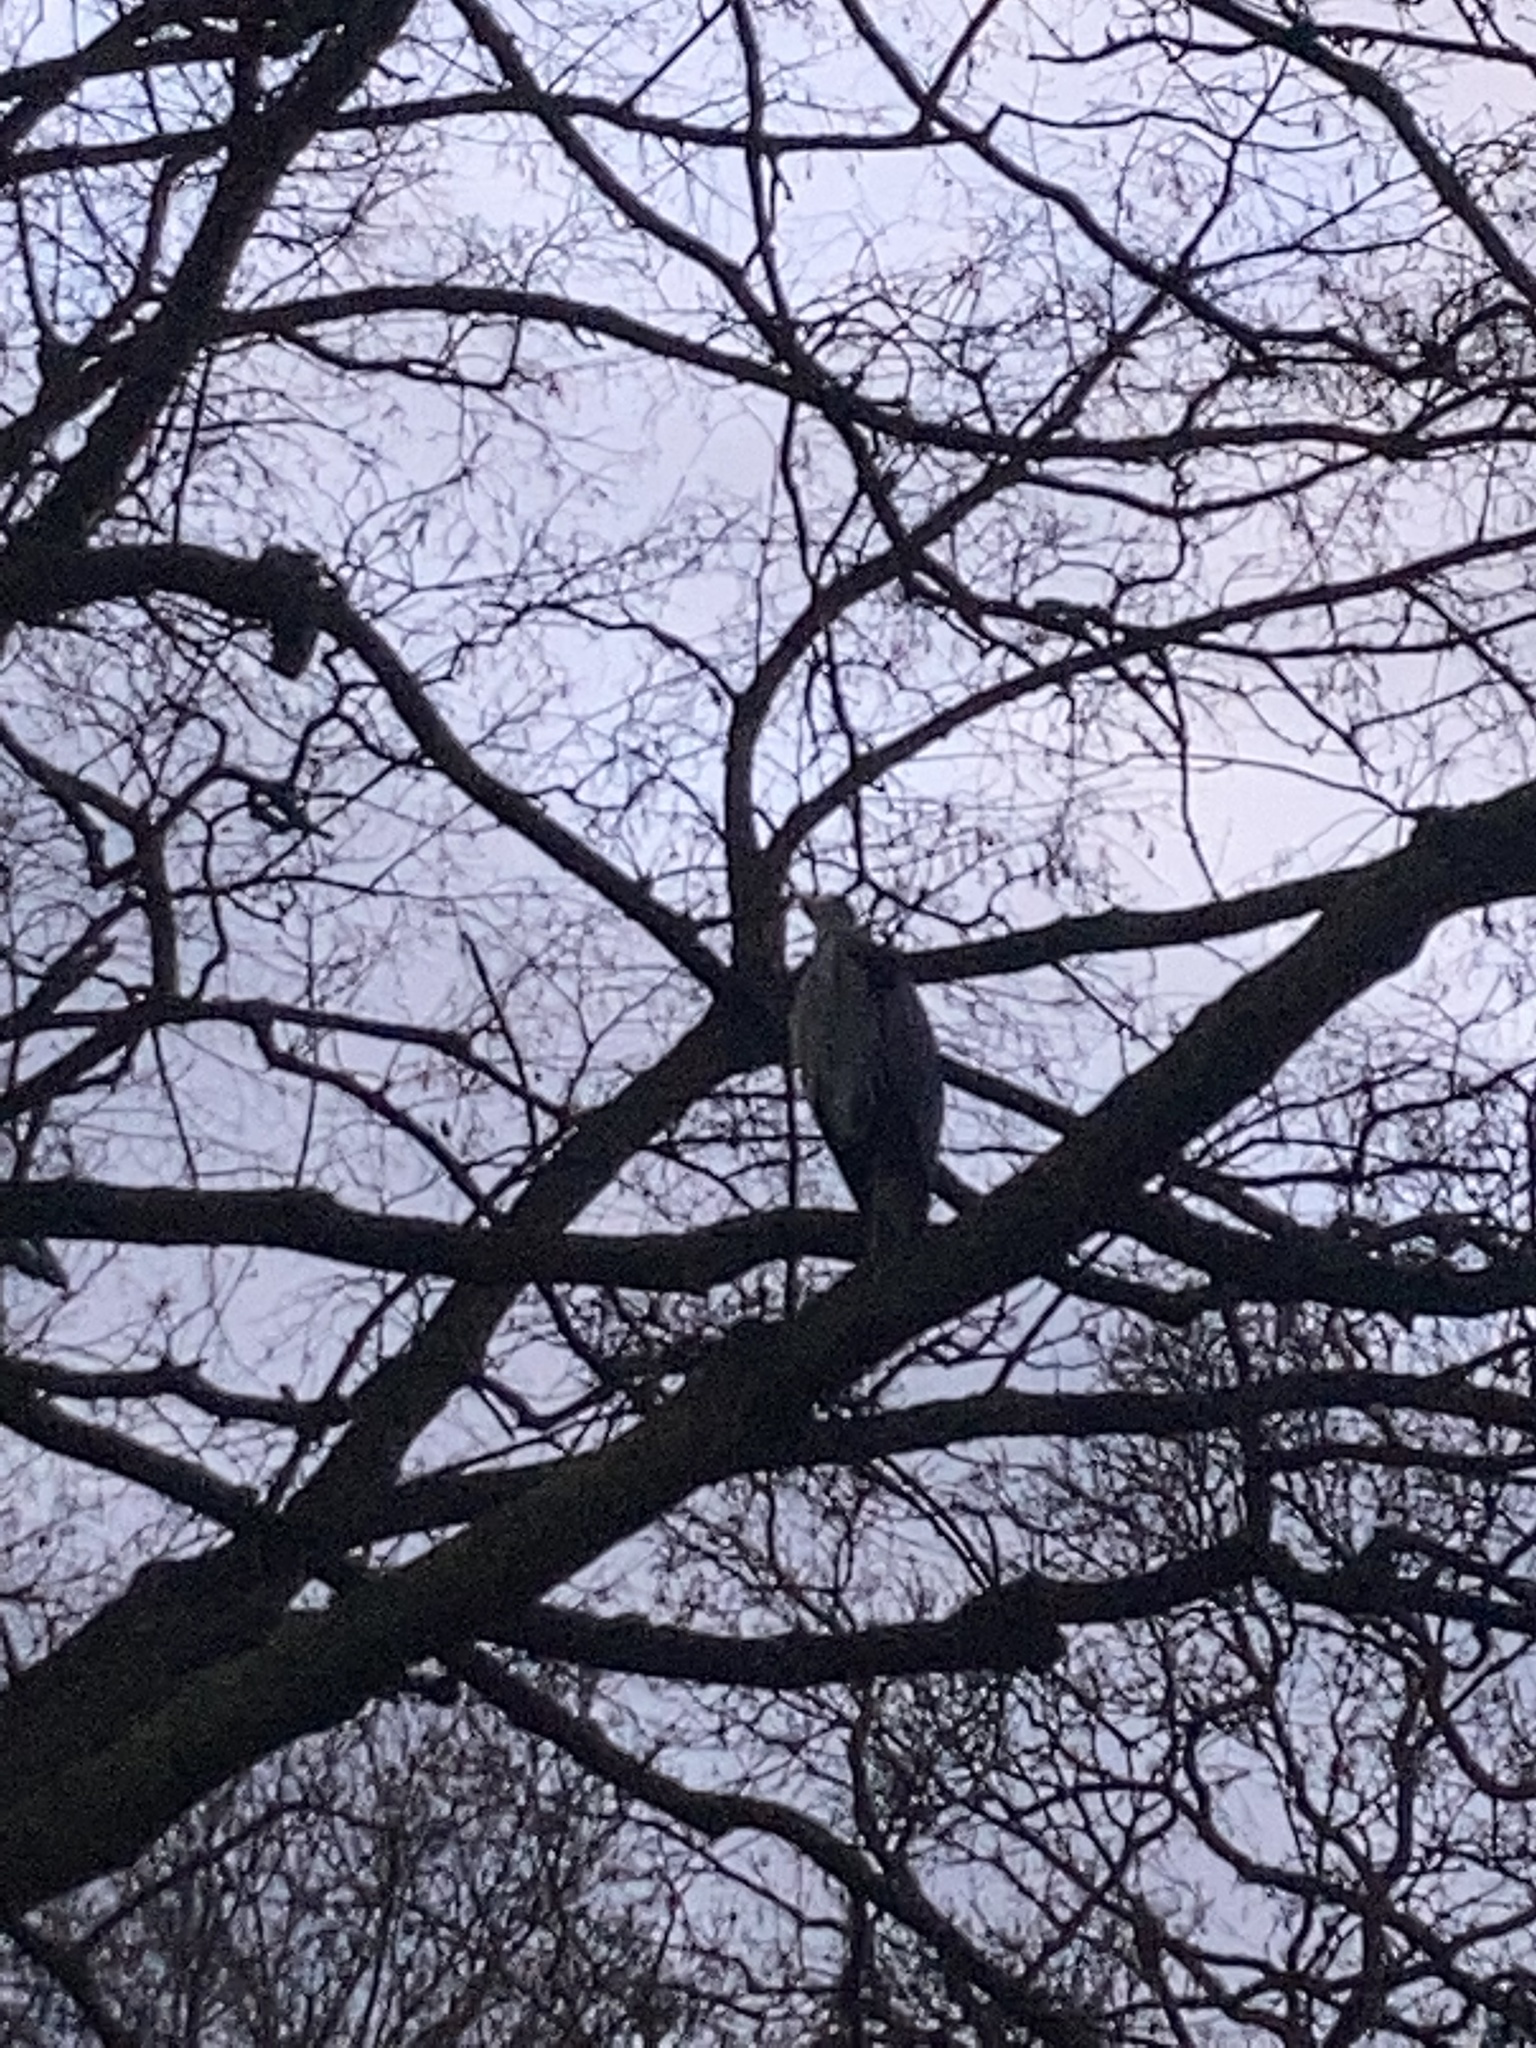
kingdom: Animalia
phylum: Chordata
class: Aves
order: Pelecaniformes
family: Ardeidae
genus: Ardea
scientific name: Ardea cinerea
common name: Grey heron
